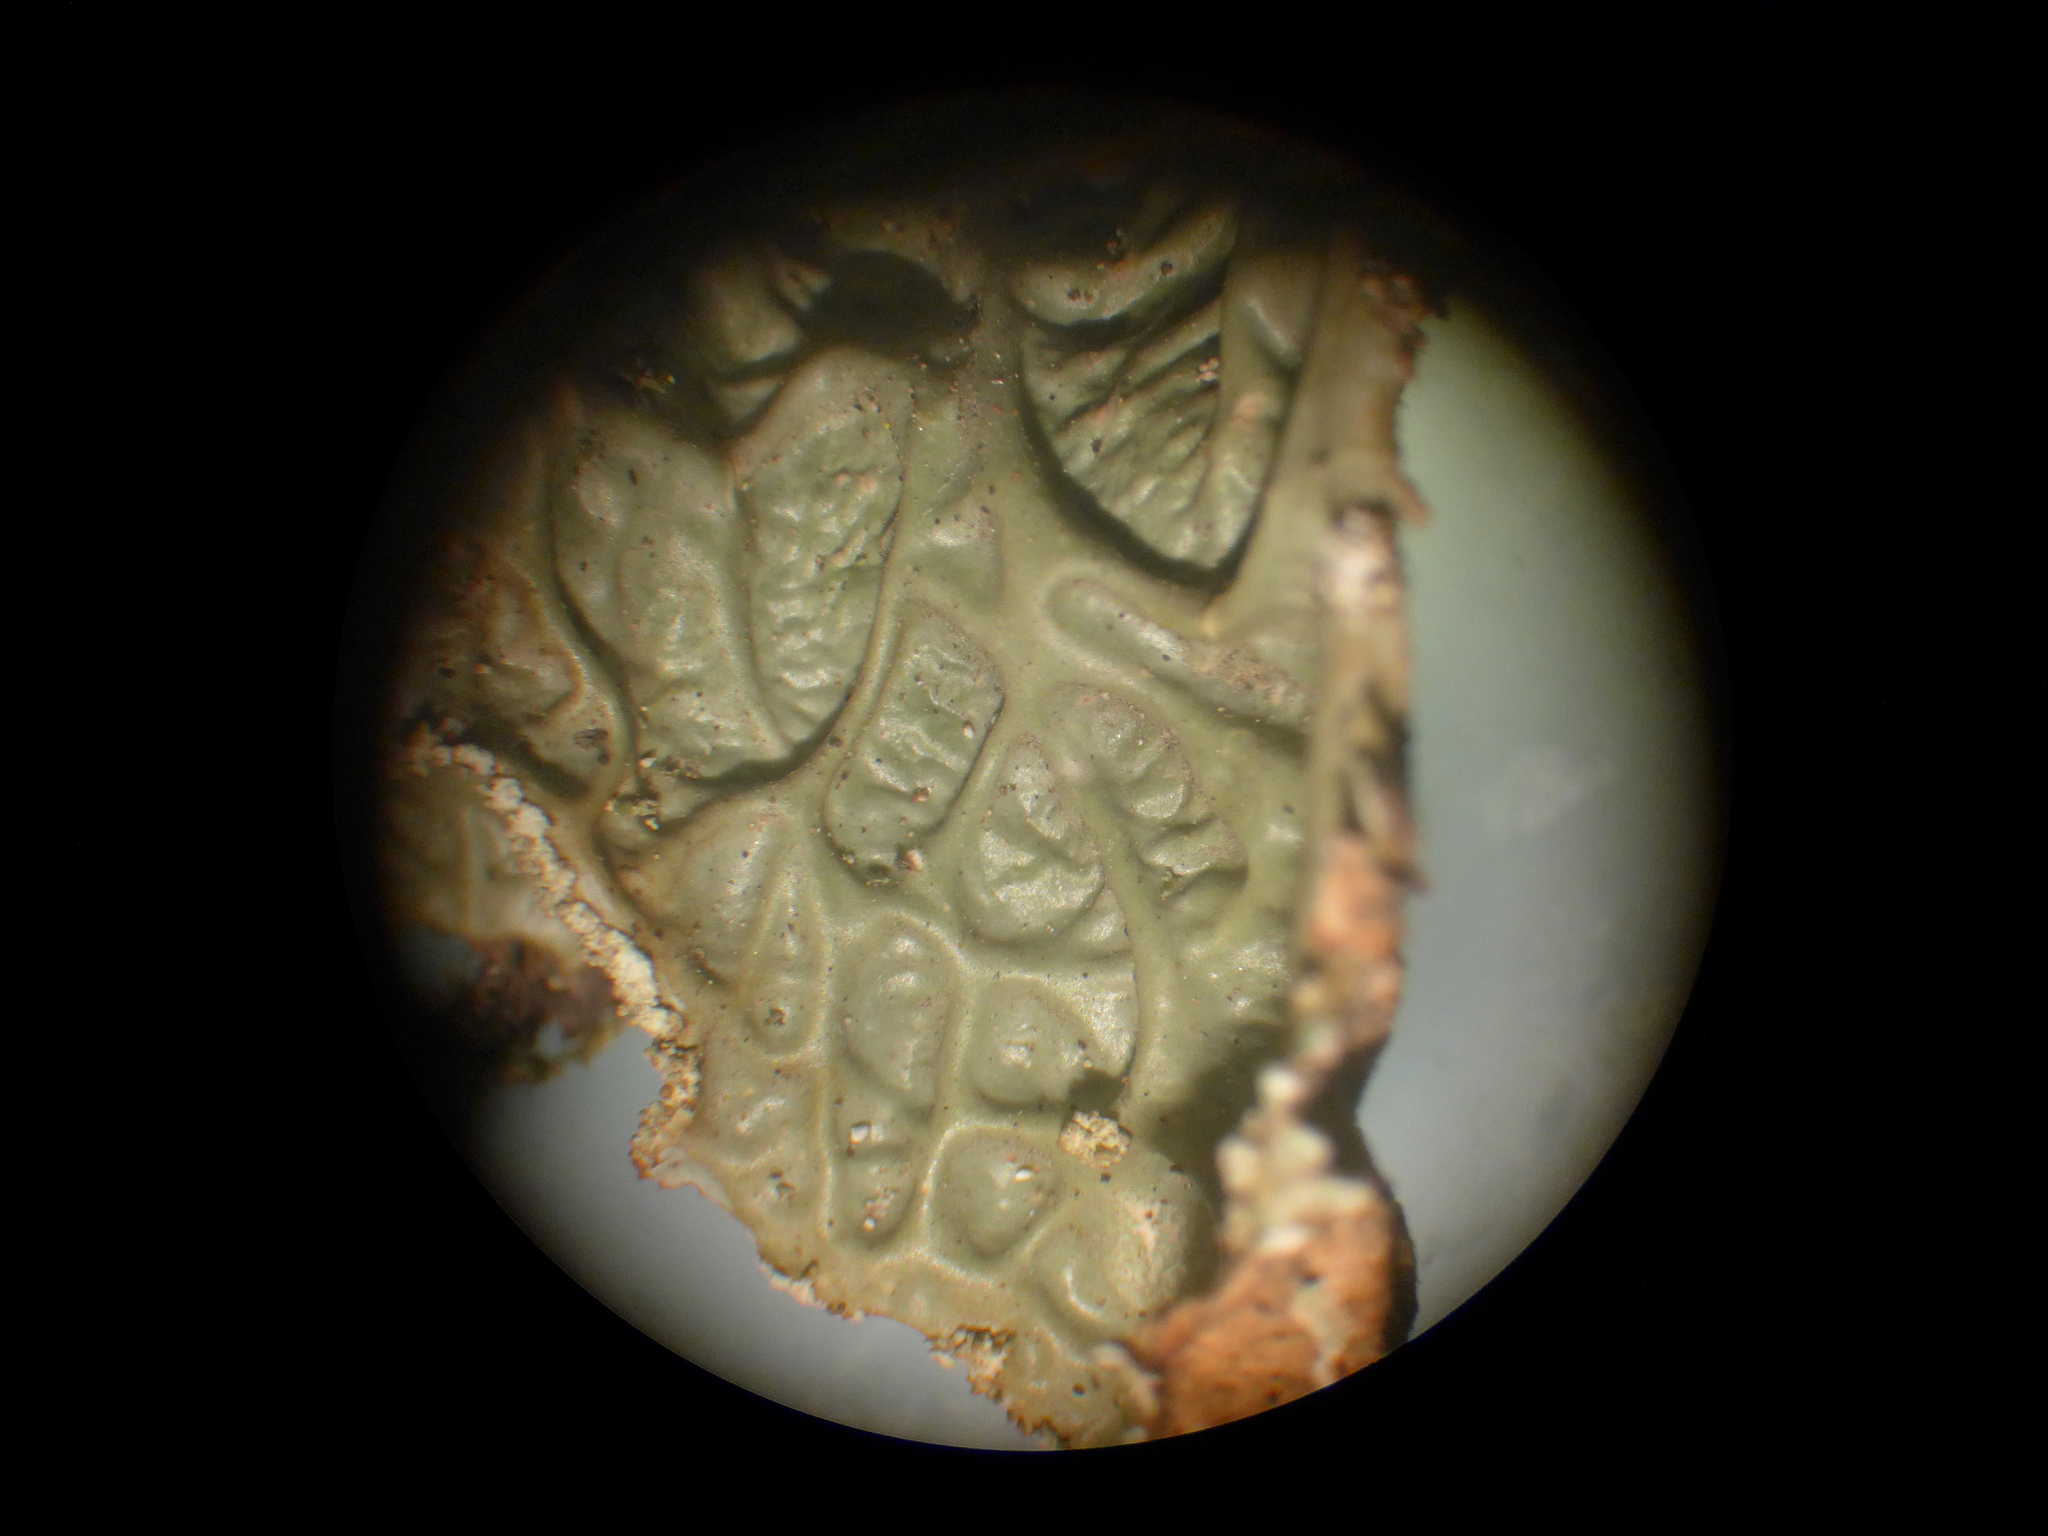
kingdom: Fungi
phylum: Ascomycota
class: Lecanoromycetes
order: Peltigerales
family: Lobariaceae
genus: Lobaria
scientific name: Lobaria oregana
